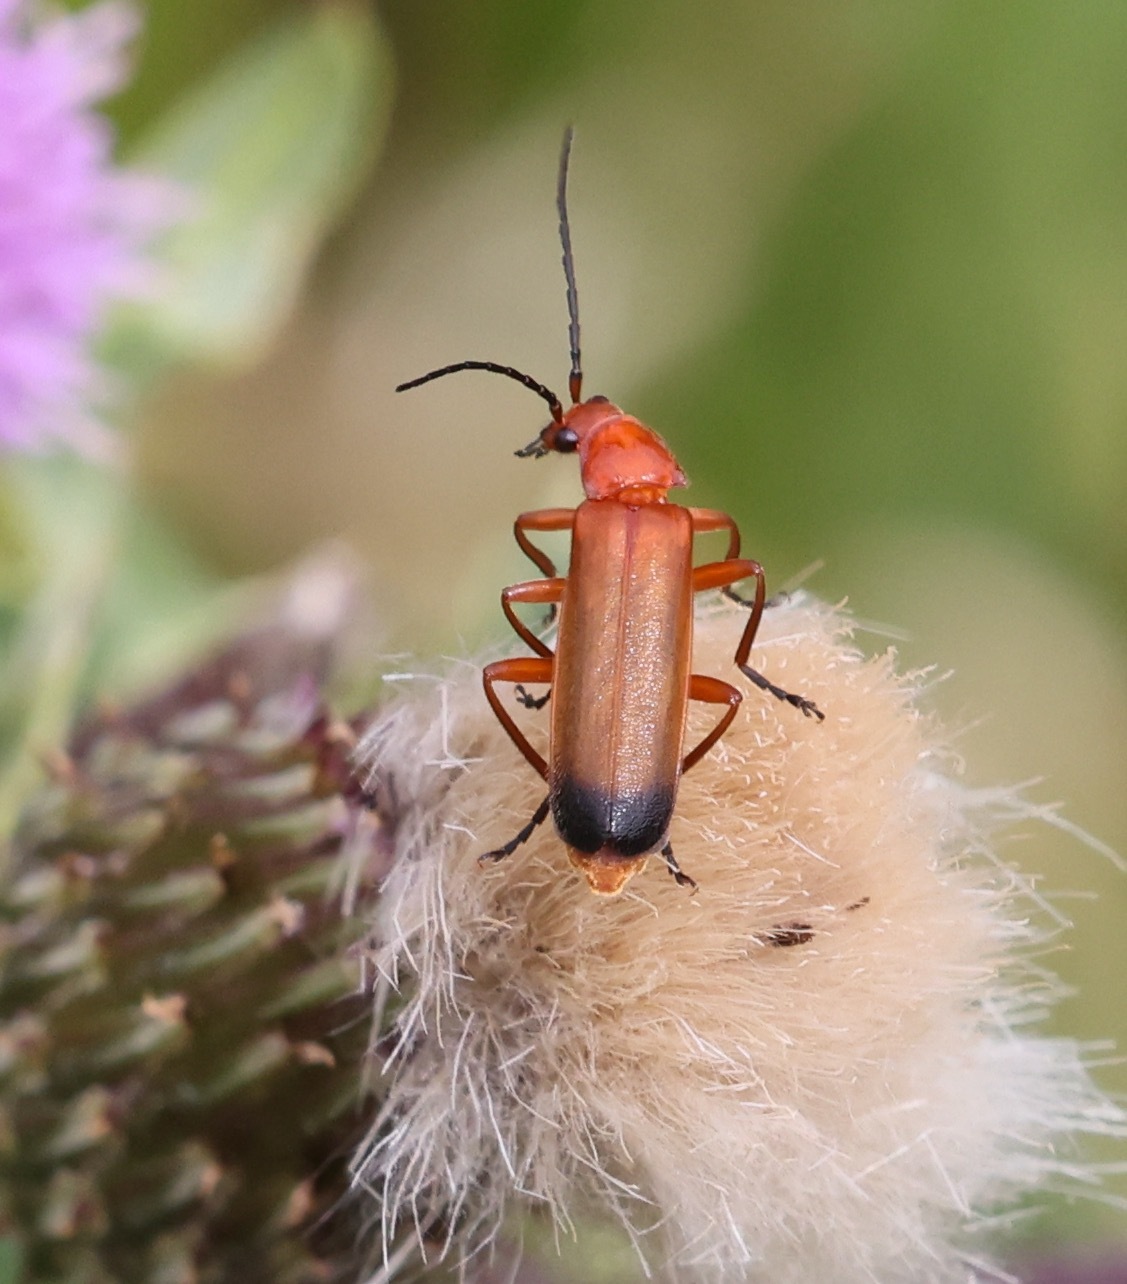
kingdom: Animalia
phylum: Arthropoda
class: Insecta
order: Coleoptera
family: Cantharidae
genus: Rhagonycha
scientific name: Rhagonycha fulva
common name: Common red soldier beetle
